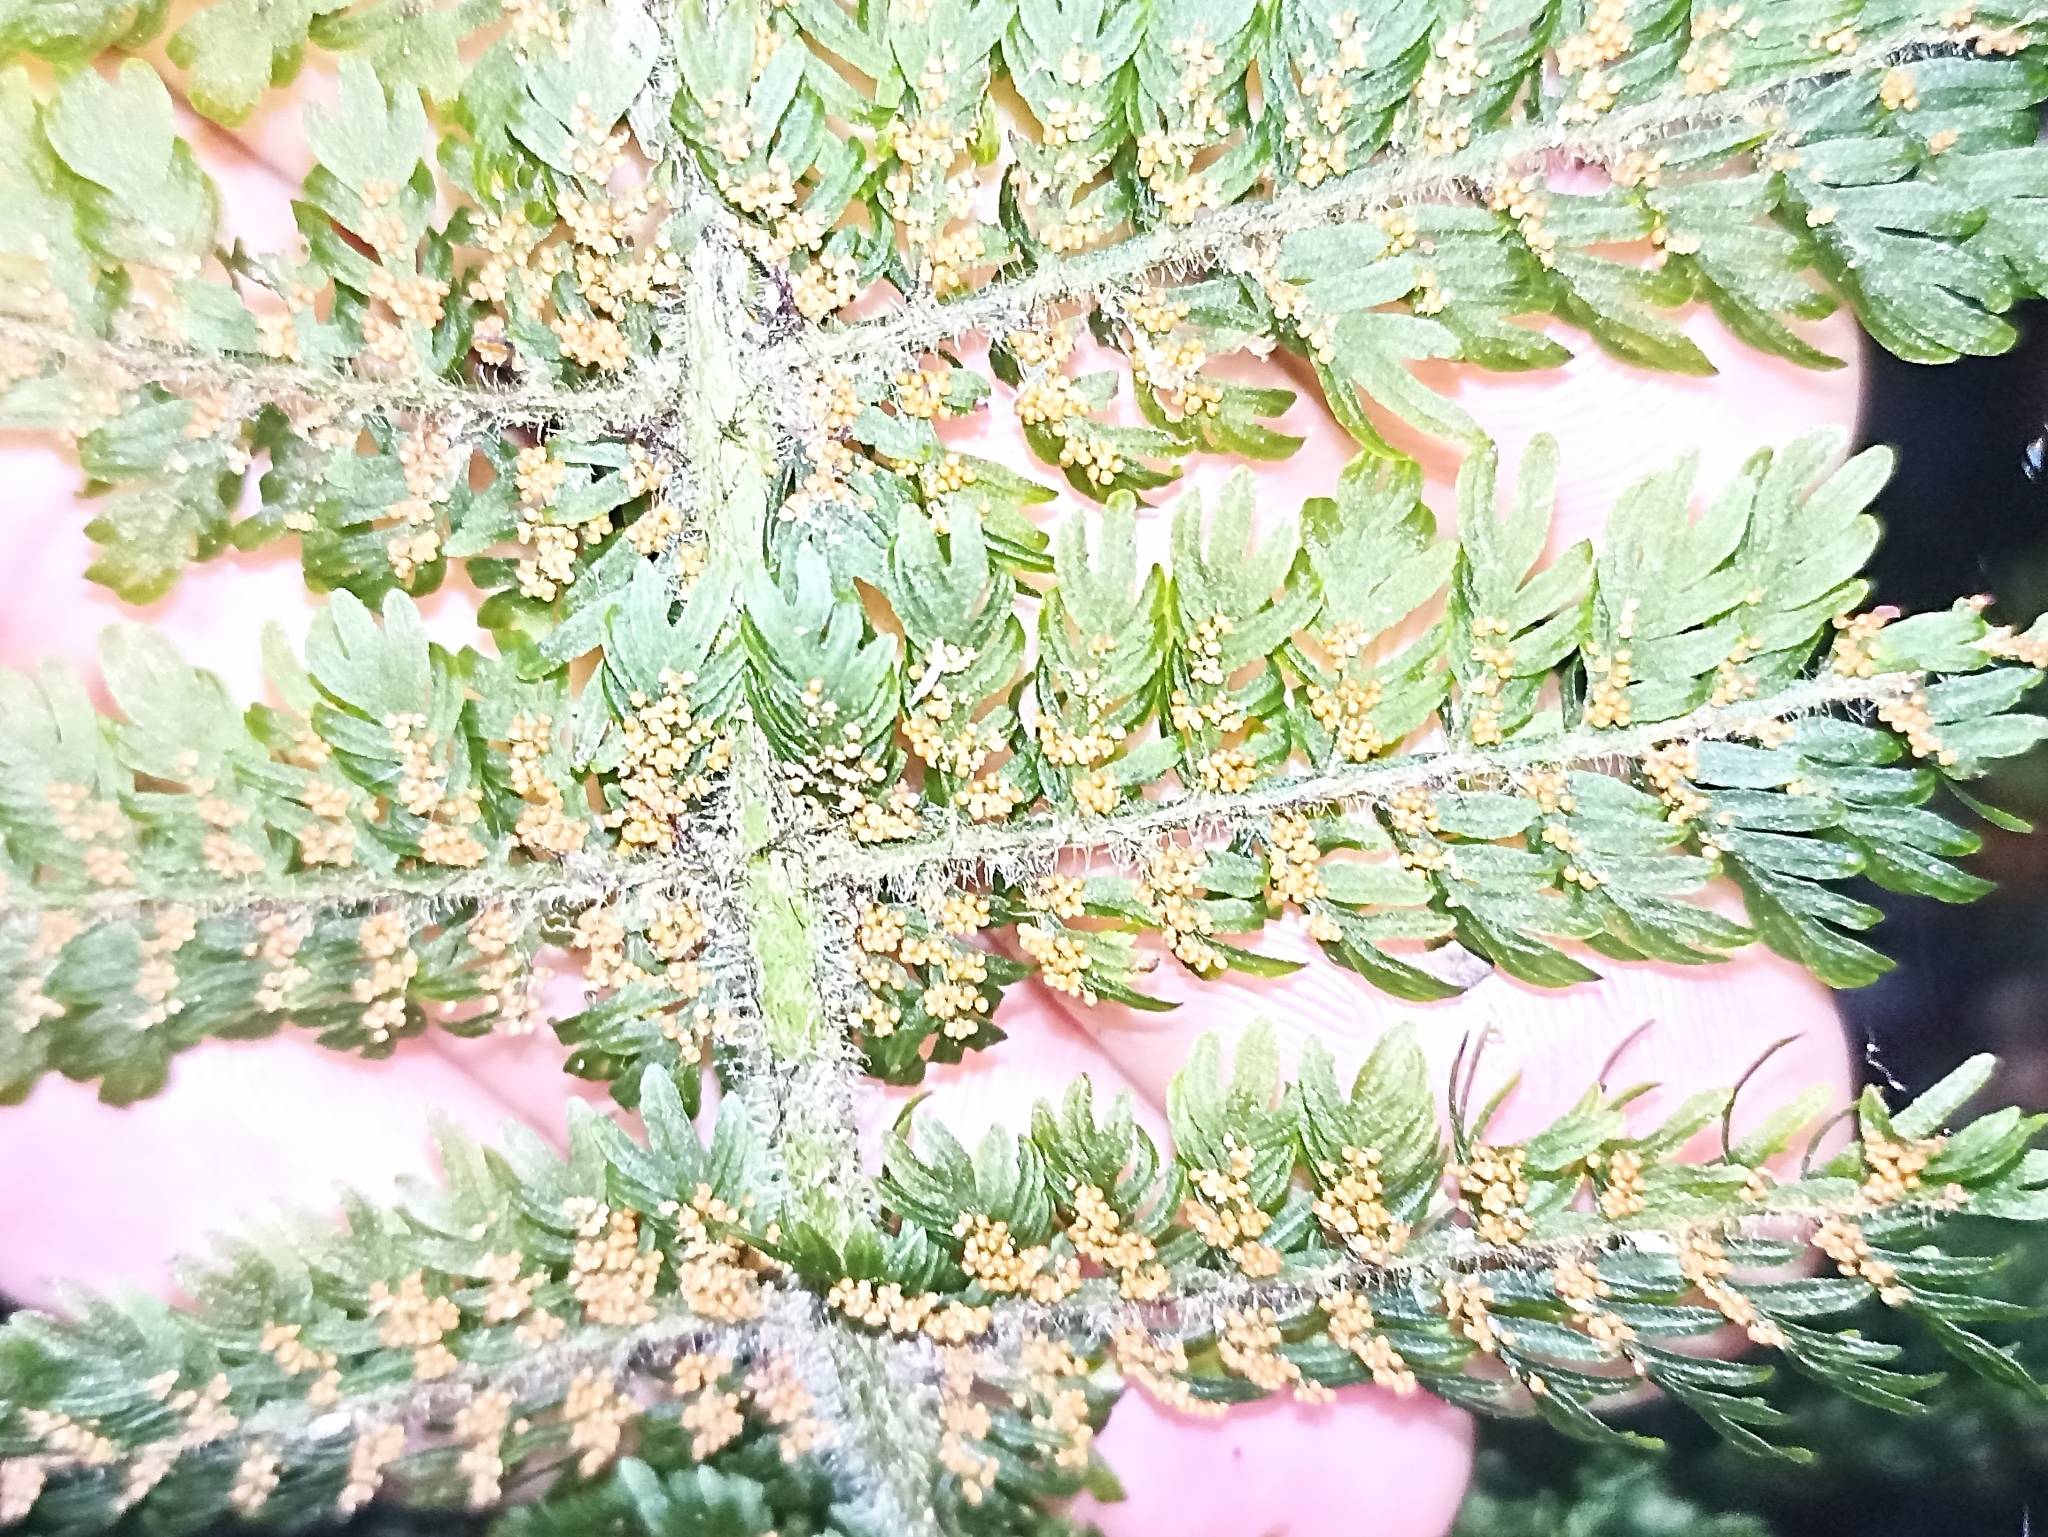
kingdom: Plantae
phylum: Tracheophyta
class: Polypodiopsida
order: Osmundales
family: Osmundaceae
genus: Leptopteris
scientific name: Leptopteris superba
